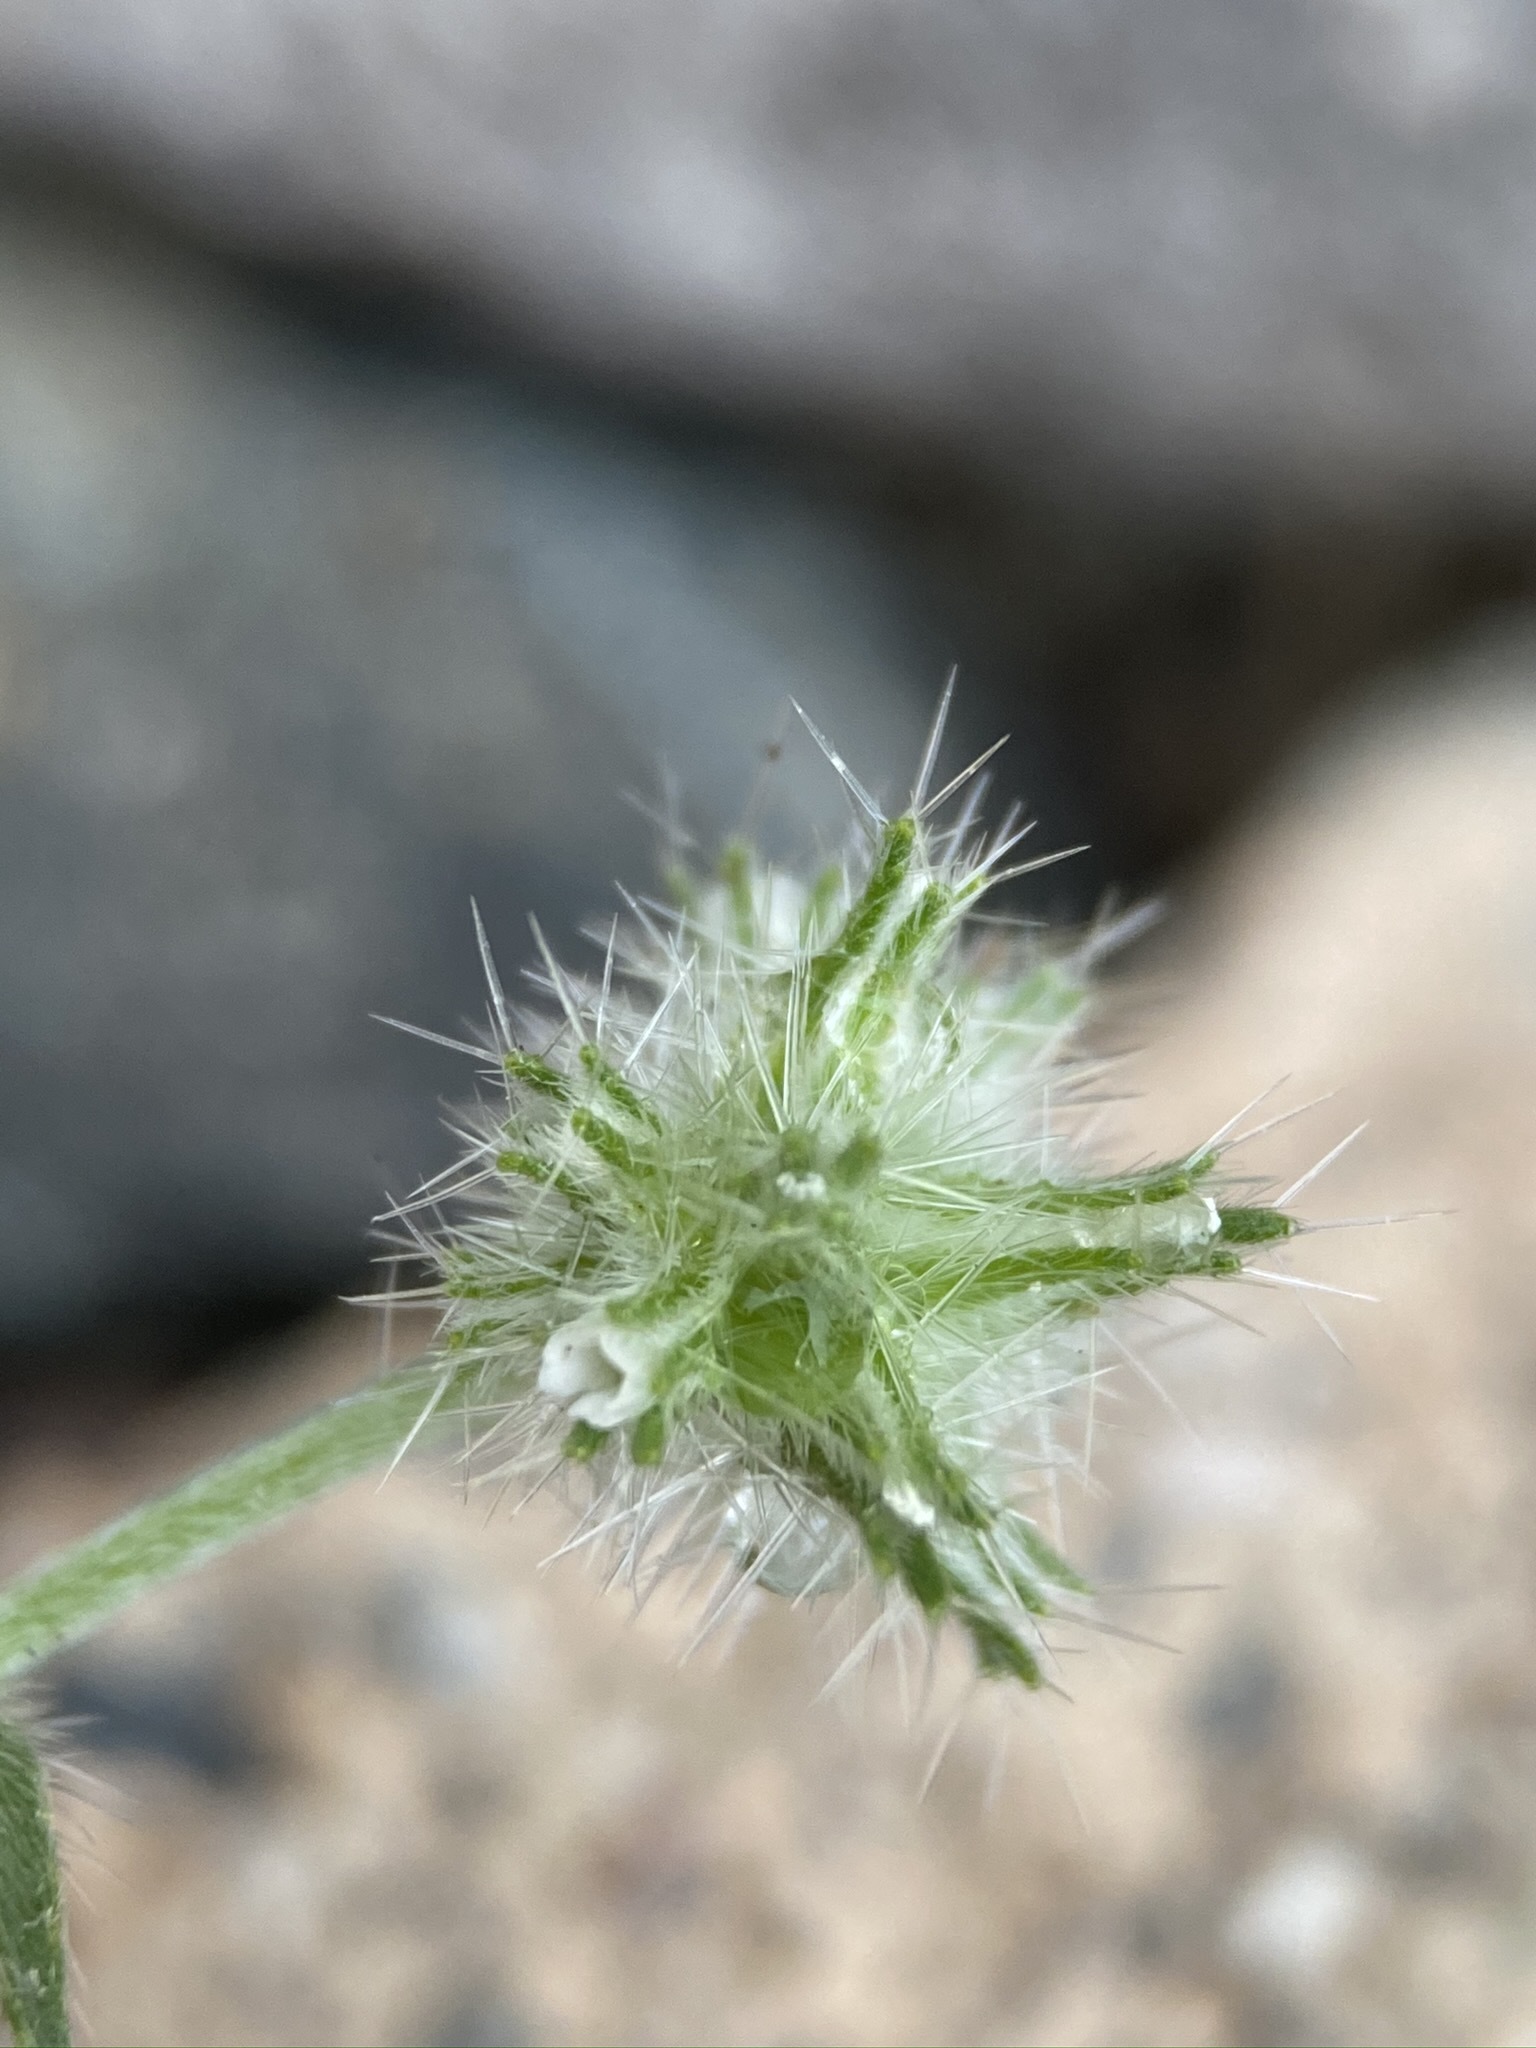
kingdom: Plantae
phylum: Tracheophyta
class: Magnoliopsida
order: Boraginales
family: Boraginaceae
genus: Cryptantha
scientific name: Cryptantha nevadensis
